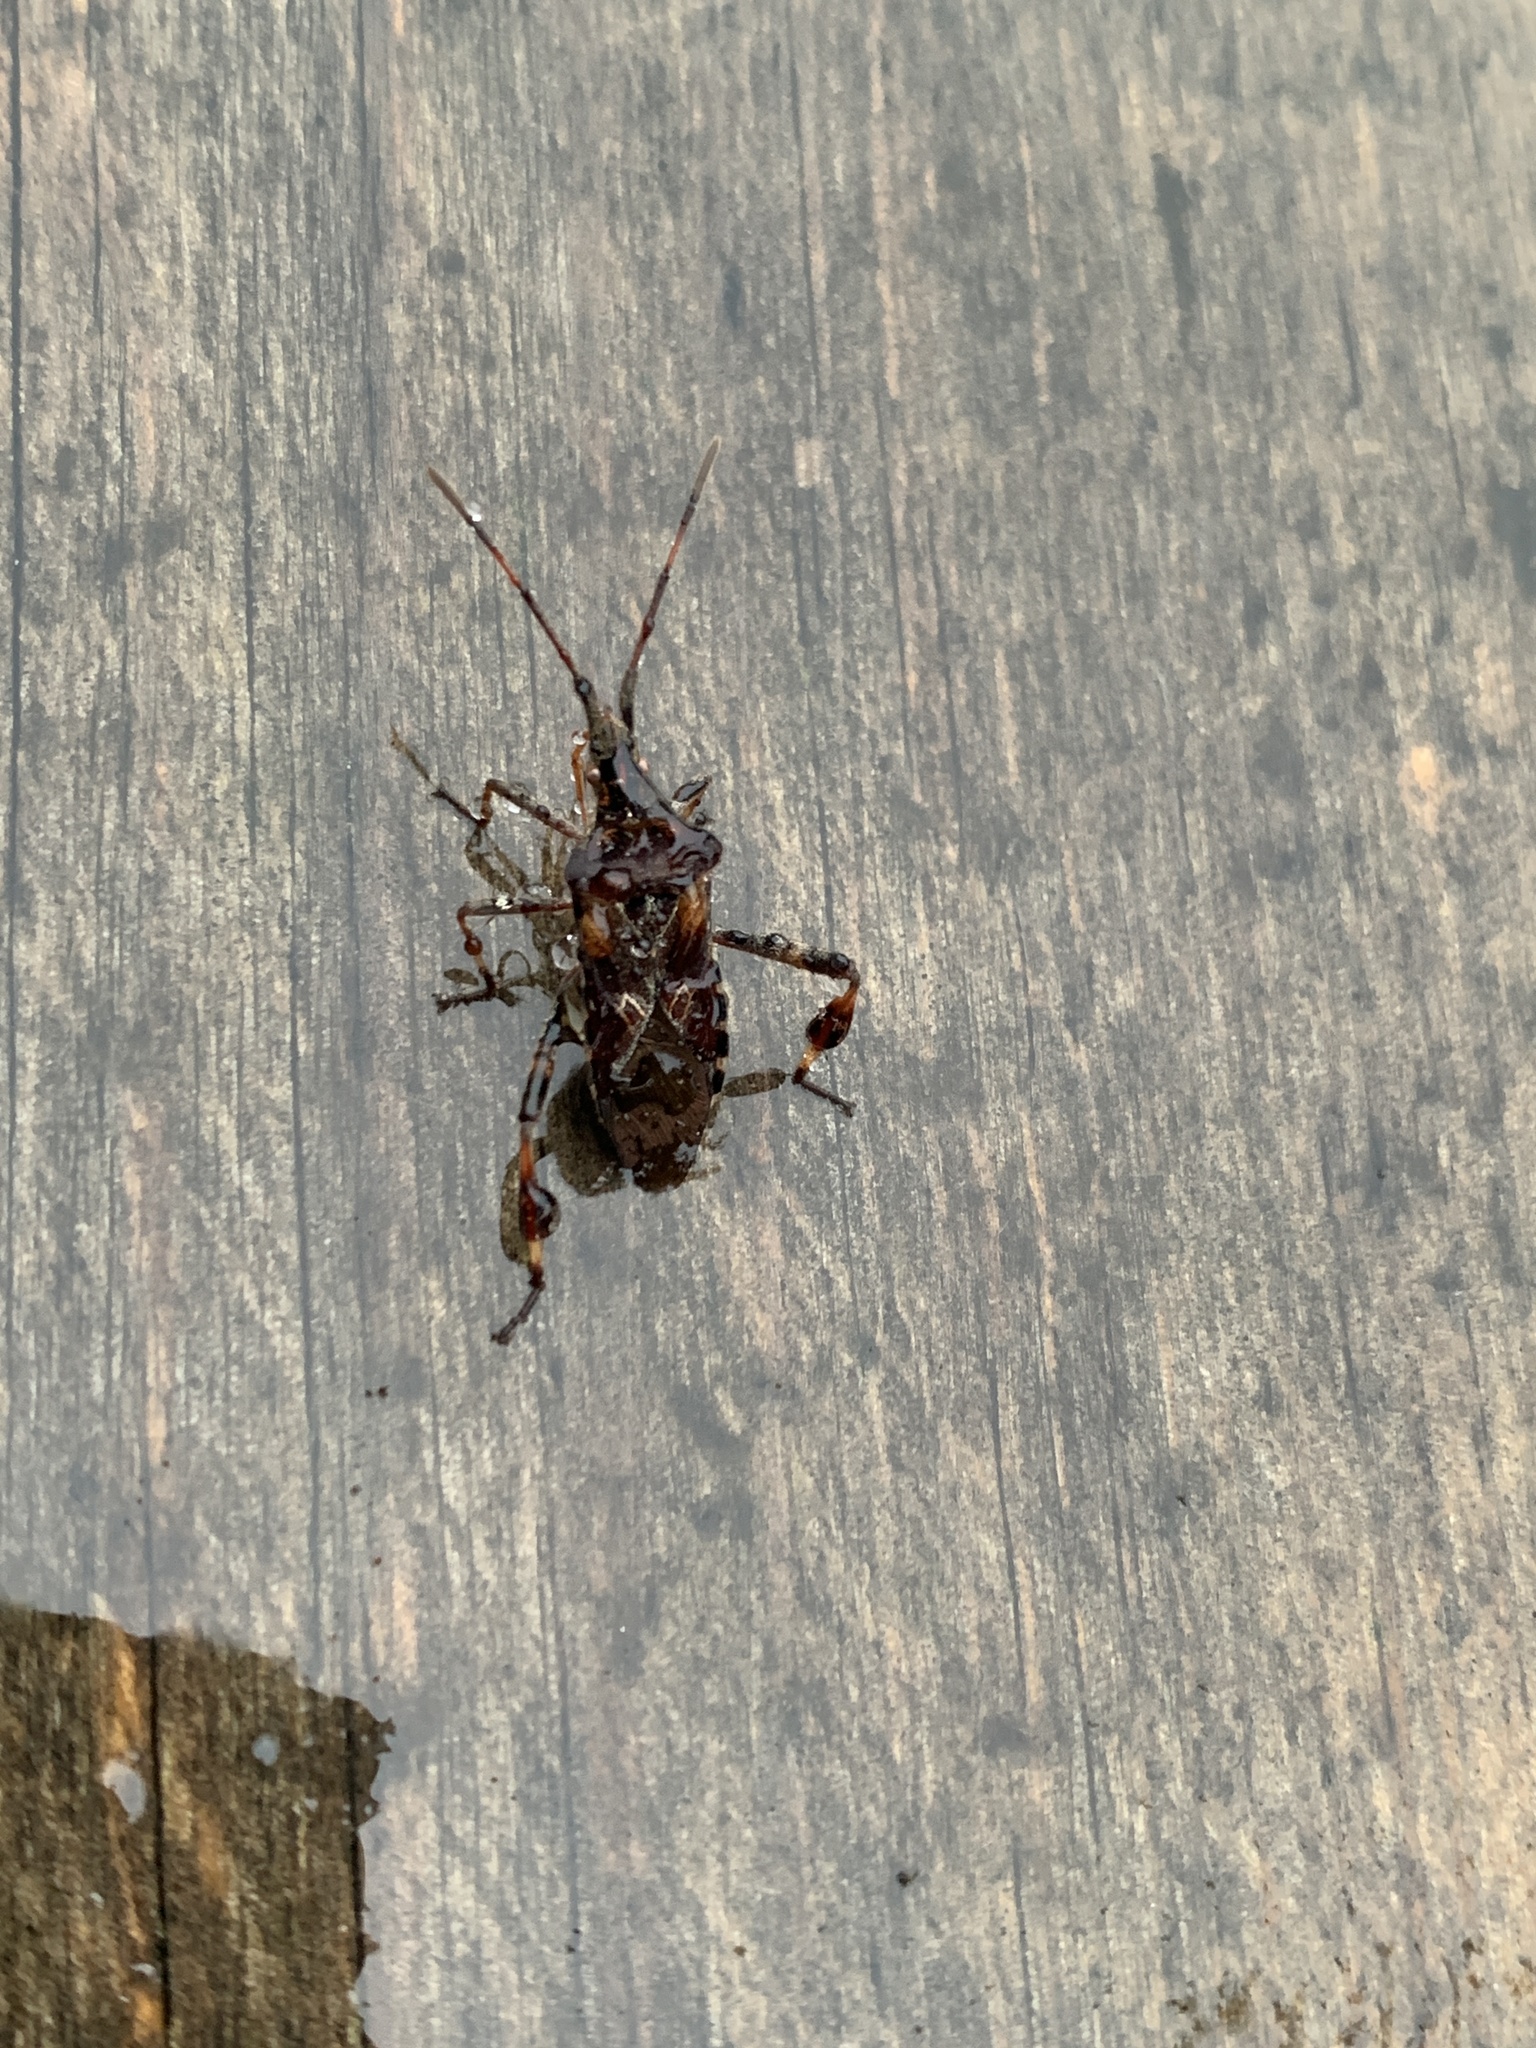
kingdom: Animalia
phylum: Arthropoda
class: Insecta
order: Hemiptera
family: Coreidae
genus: Leptoglossus
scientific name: Leptoglossus occidentalis
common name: Western conifer-seed bug
